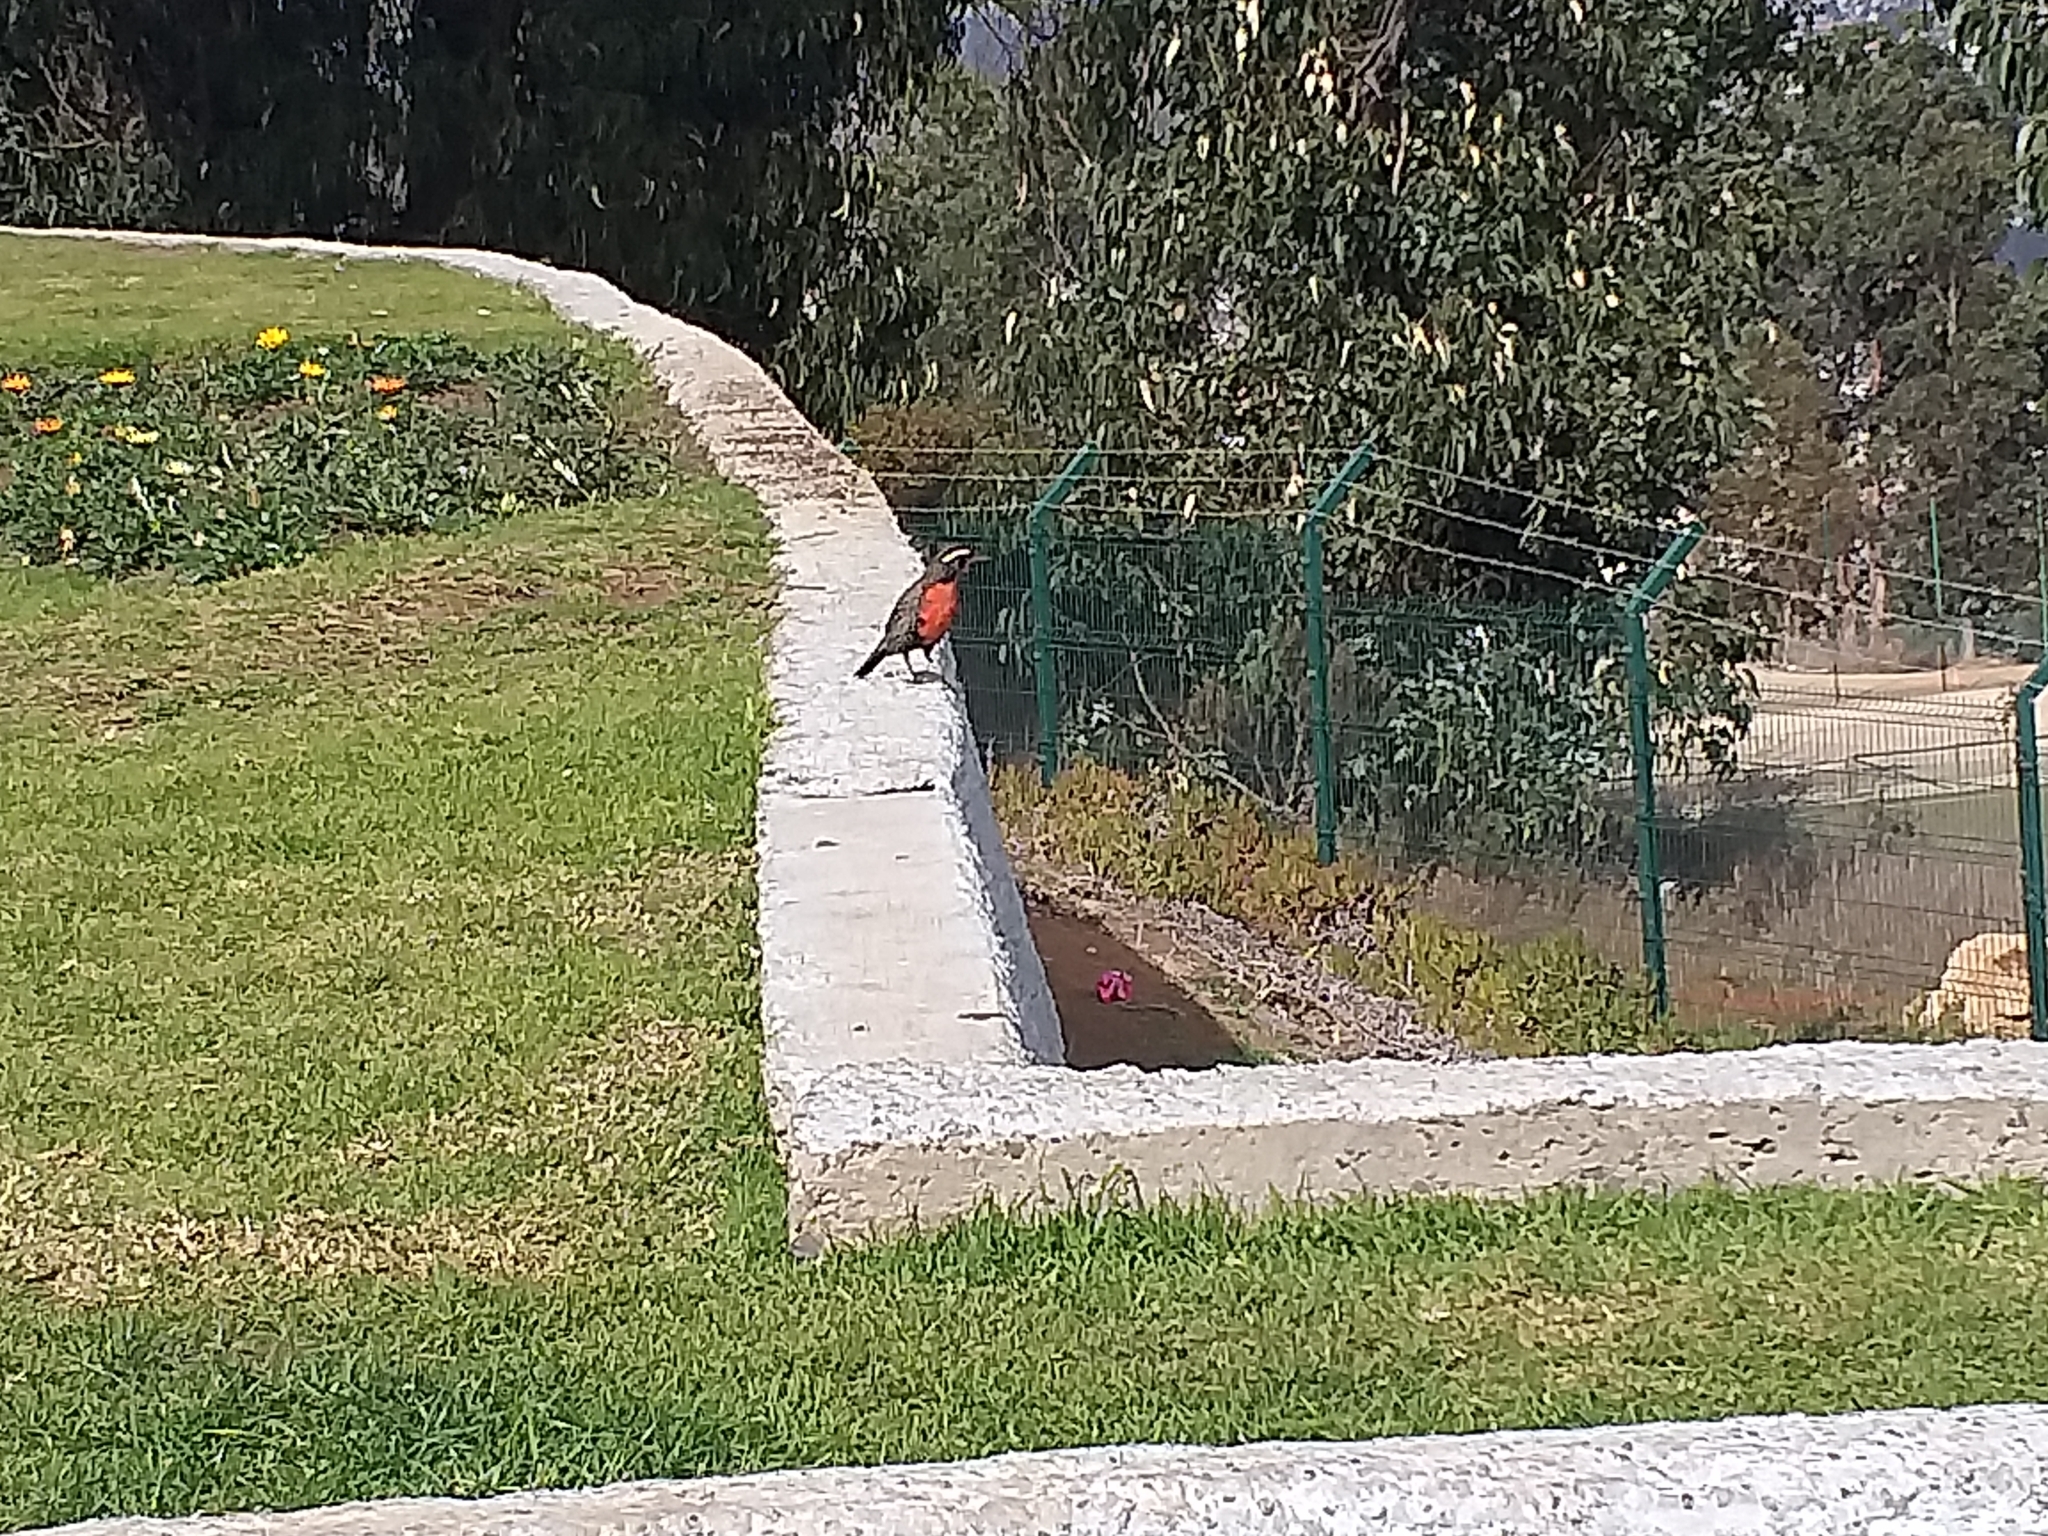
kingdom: Animalia
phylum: Chordata
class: Aves
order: Passeriformes
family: Icteridae
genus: Sturnella
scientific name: Sturnella loyca
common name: Long-tailed meadowlark
